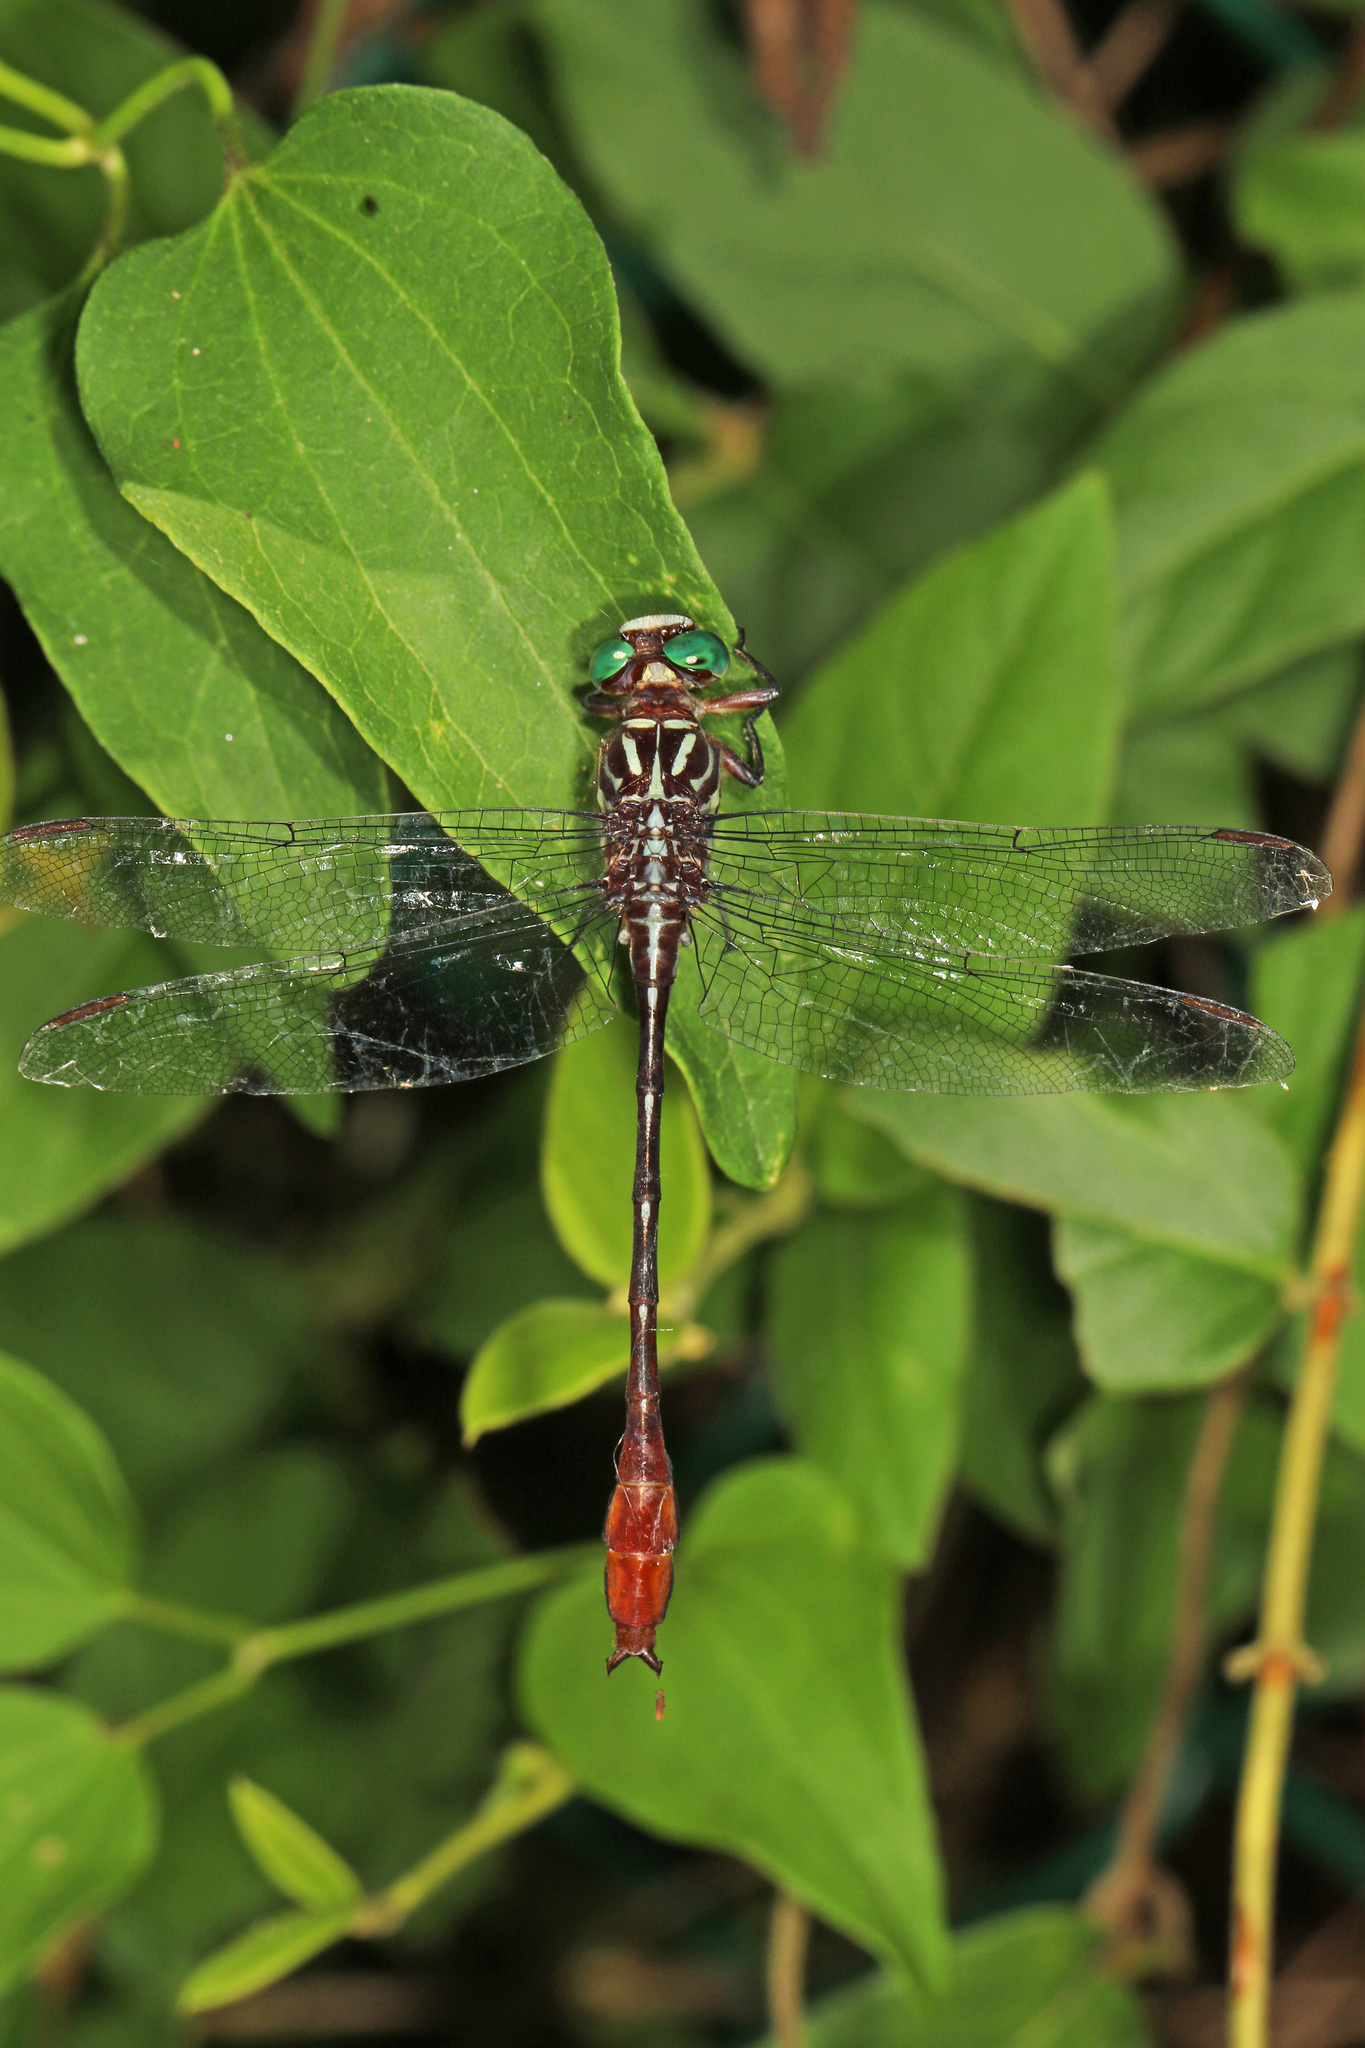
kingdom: Animalia
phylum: Arthropoda
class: Insecta
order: Odonata
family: Gomphidae
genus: Stylurus
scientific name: Stylurus plagiatus
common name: Russet-tipped clubtail
